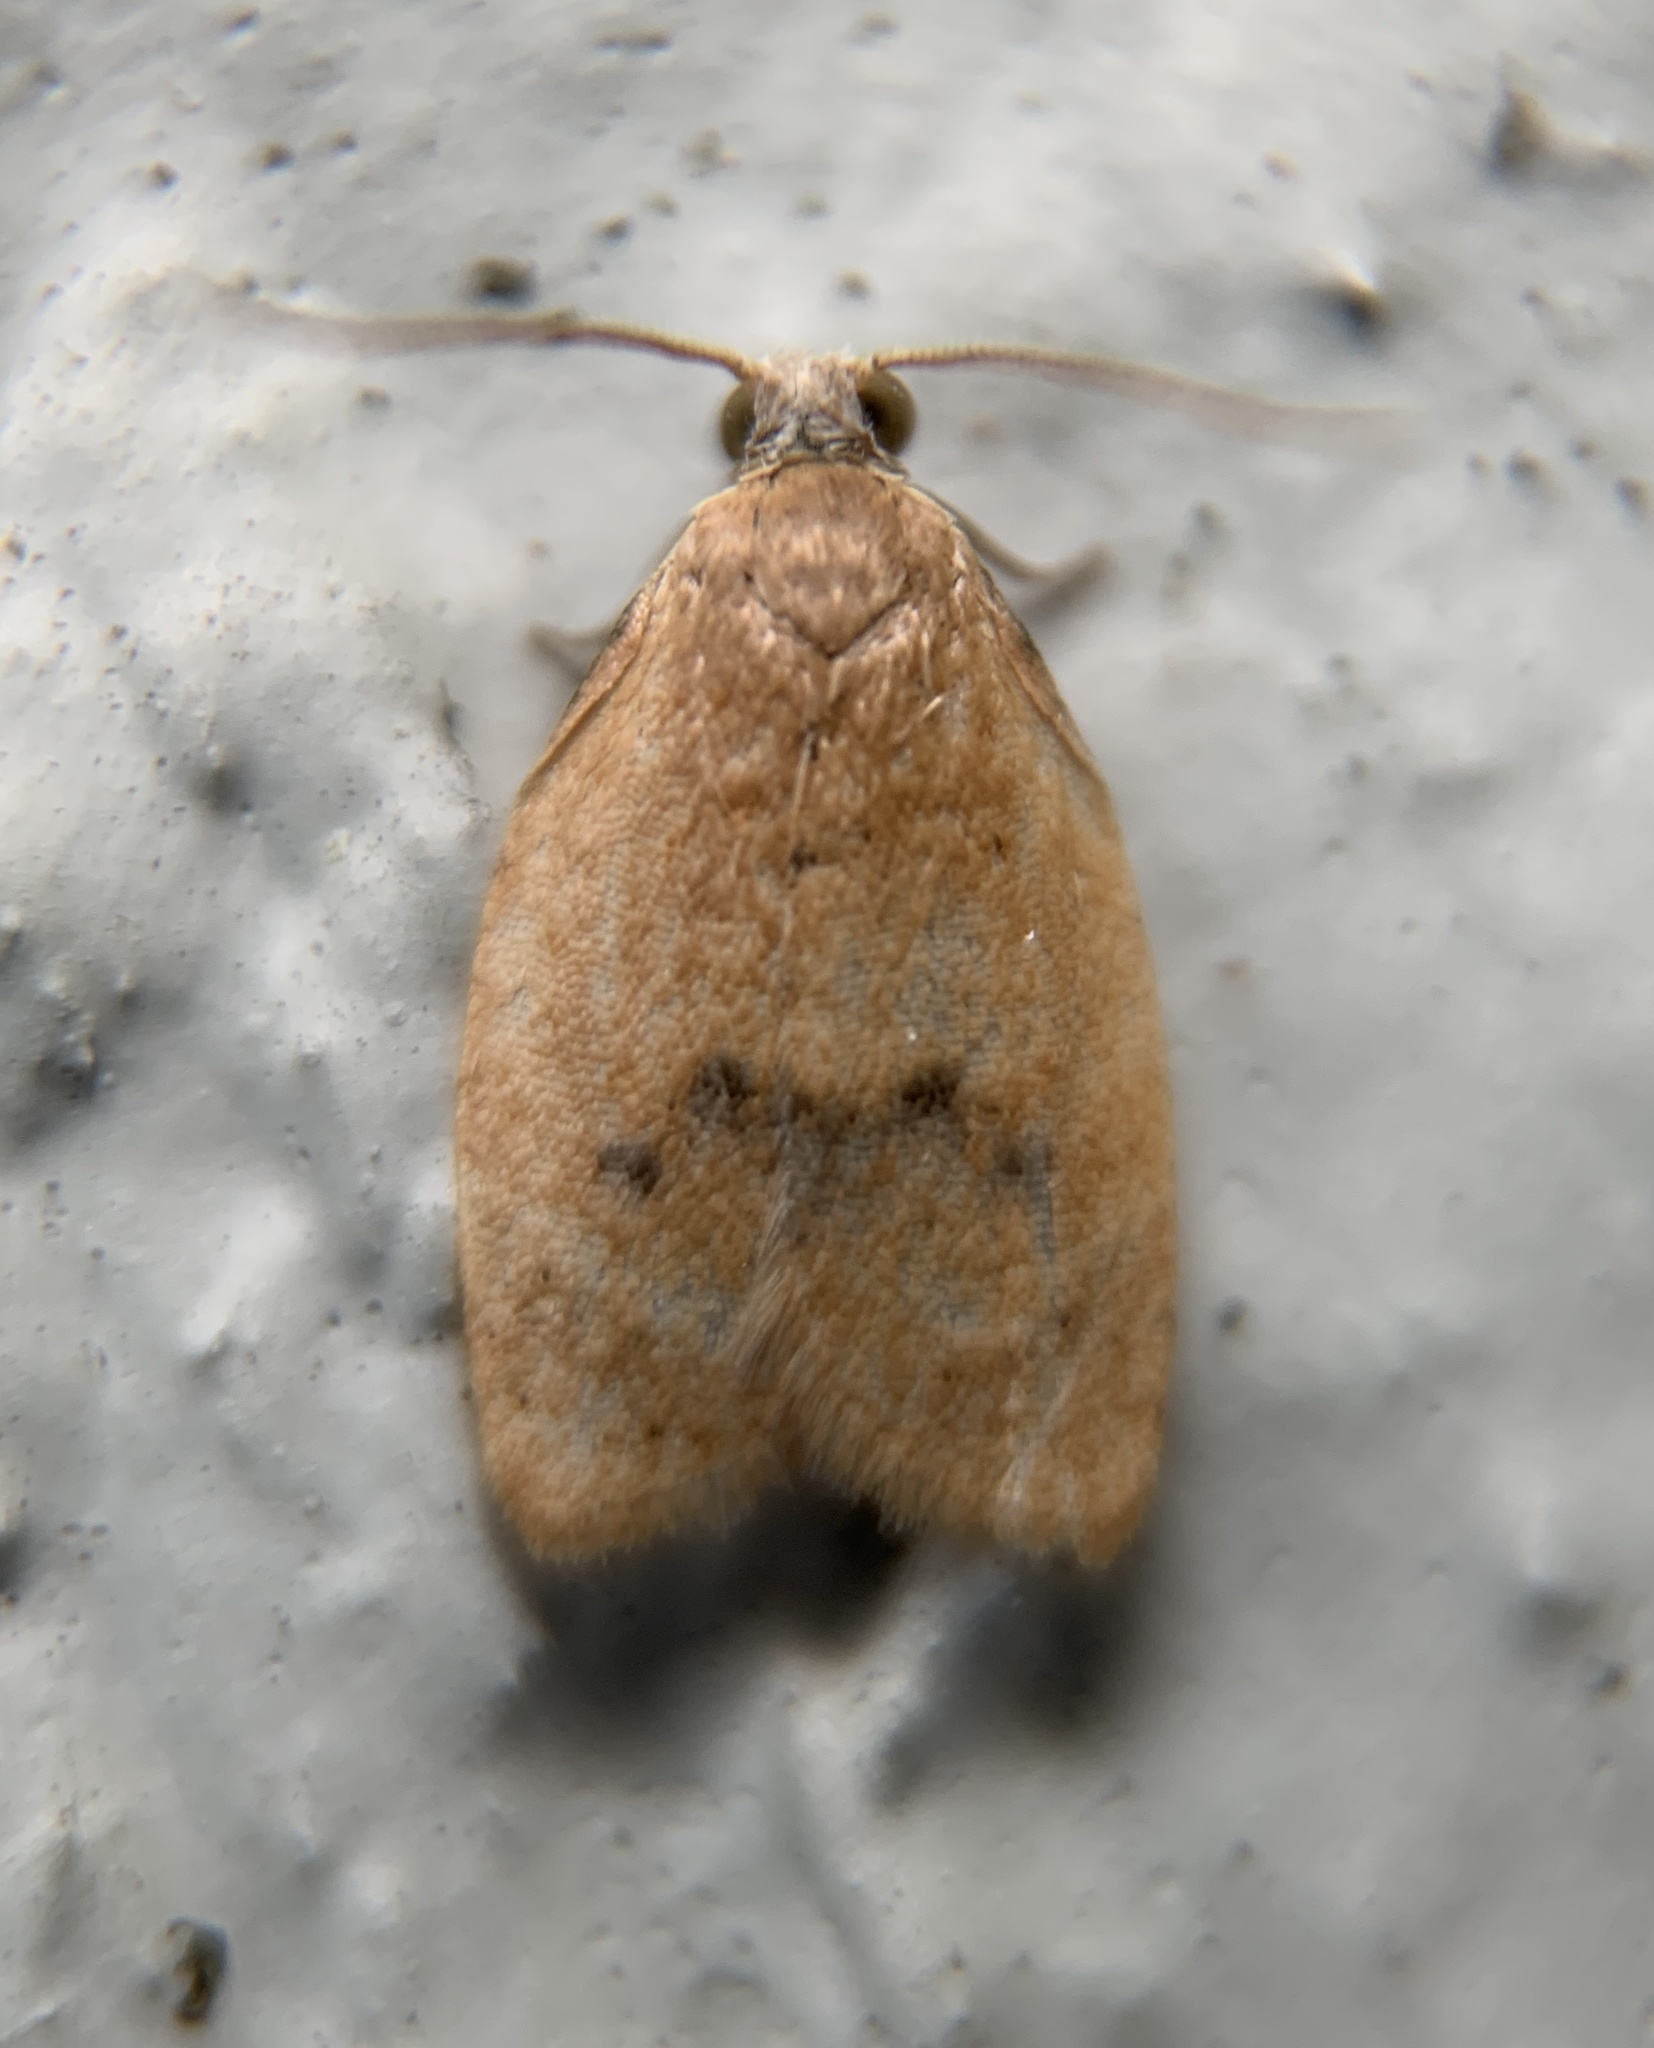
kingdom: Animalia
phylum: Arthropoda
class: Insecta
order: Lepidoptera
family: Tortricidae
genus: Sparganothoides
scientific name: Sparganothoides lentiginosana
